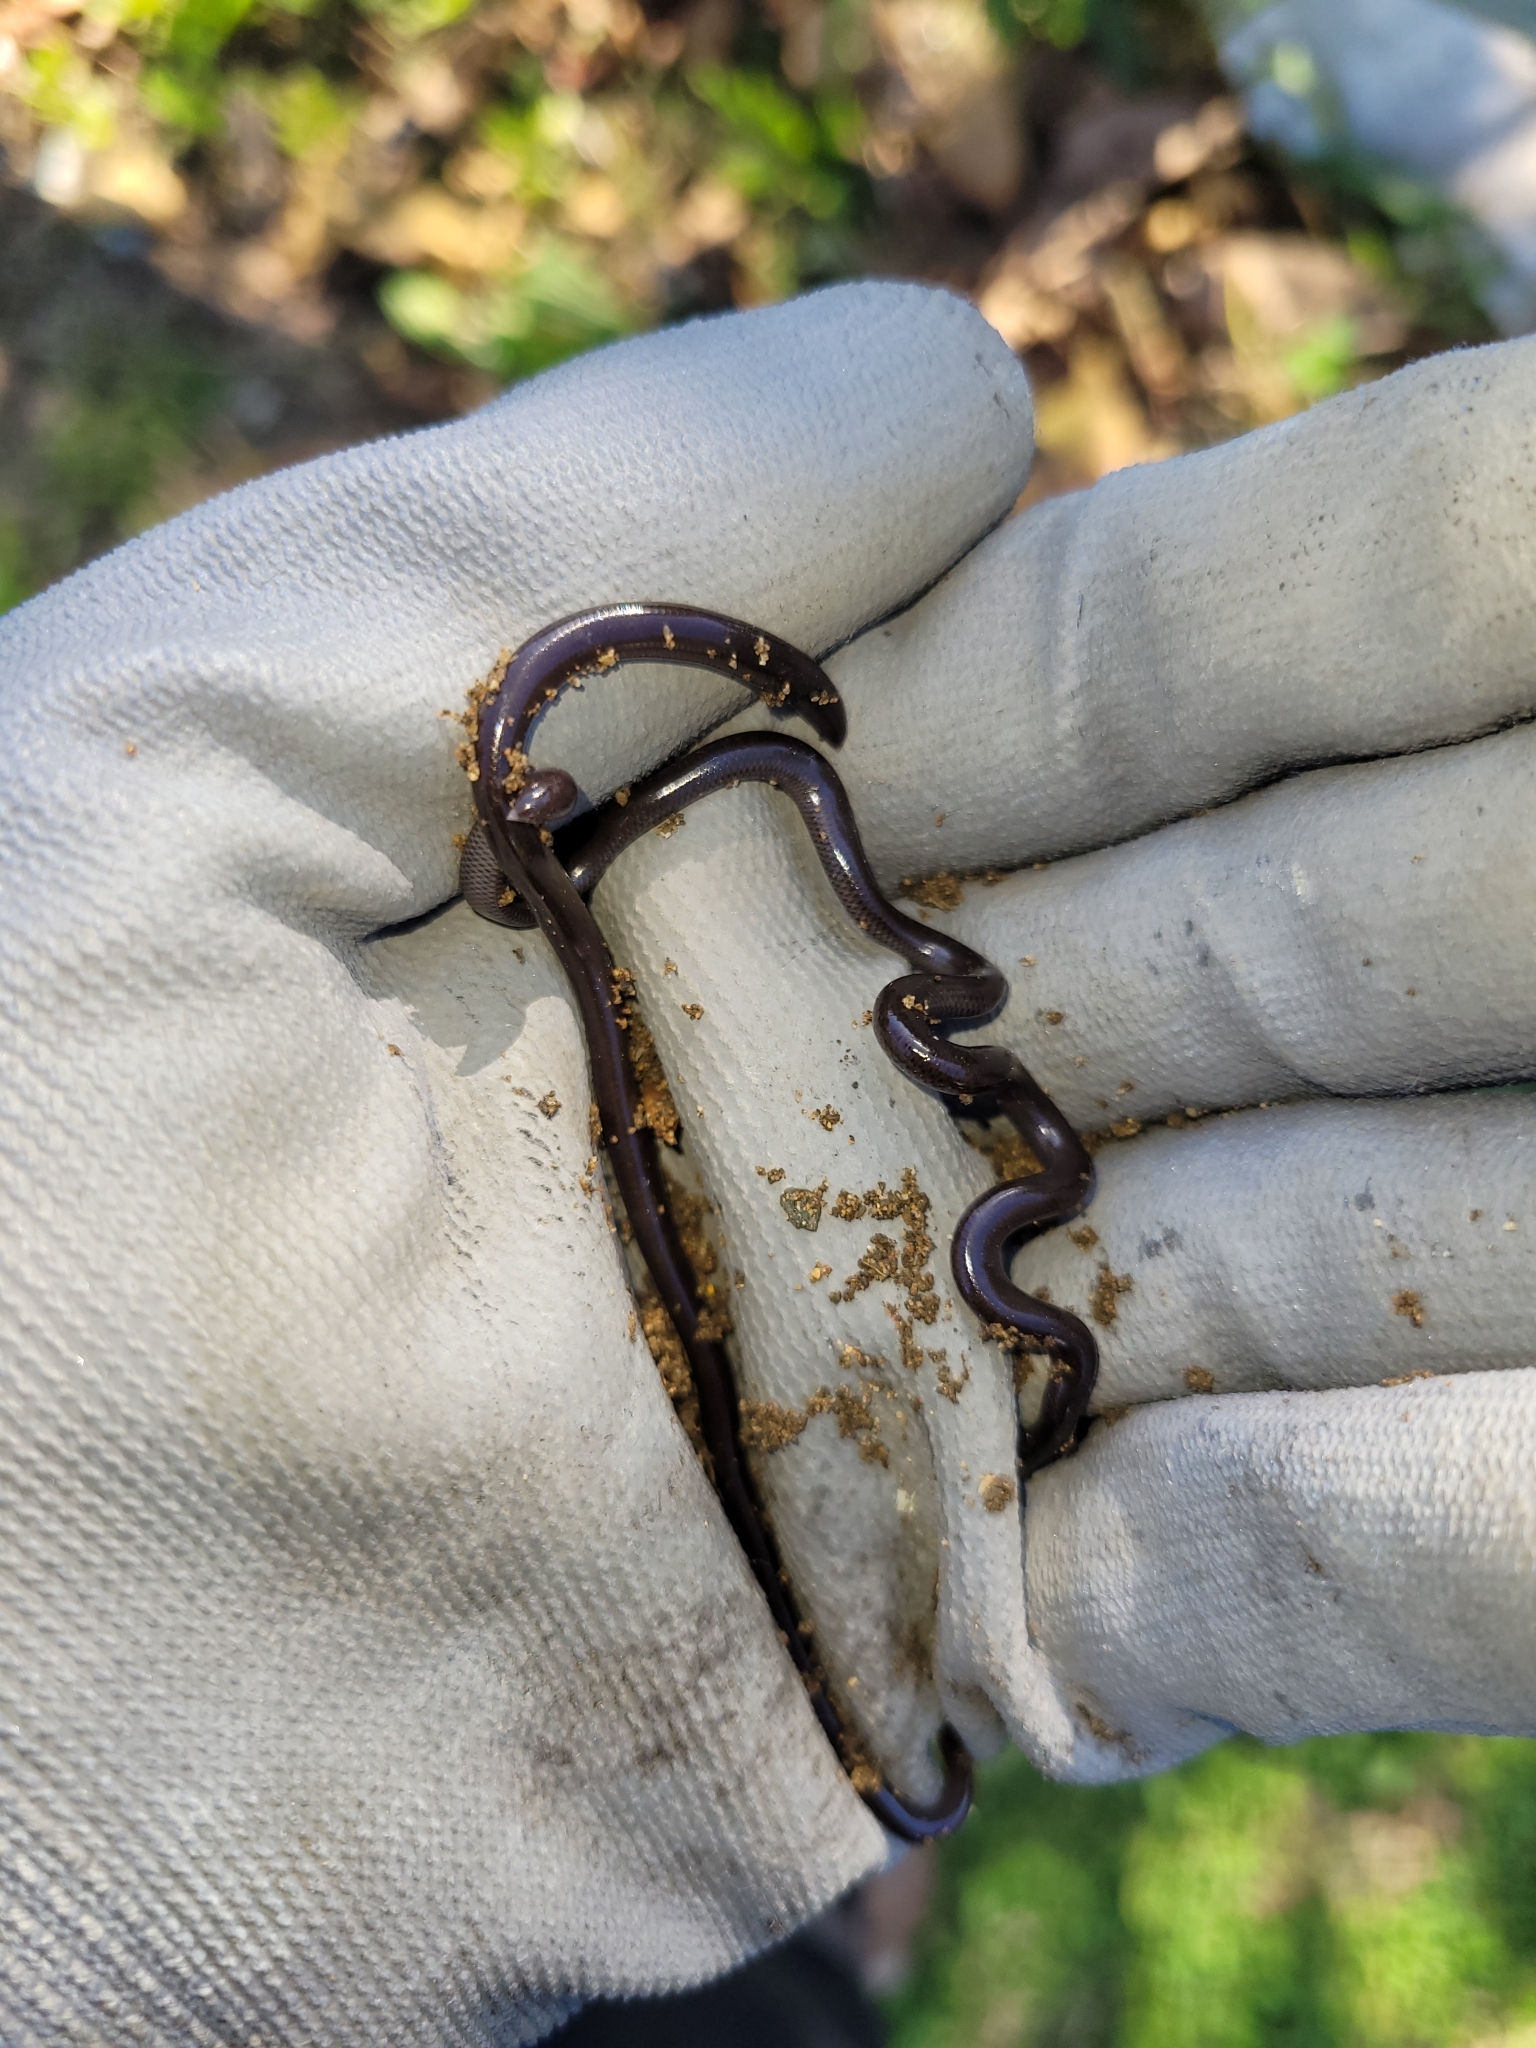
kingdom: Animalia
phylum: Chordata
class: Squamata
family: Typhlopidae
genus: Indotyphlops
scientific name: Indotyphlops braminus
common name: Brahminy blindsnake
